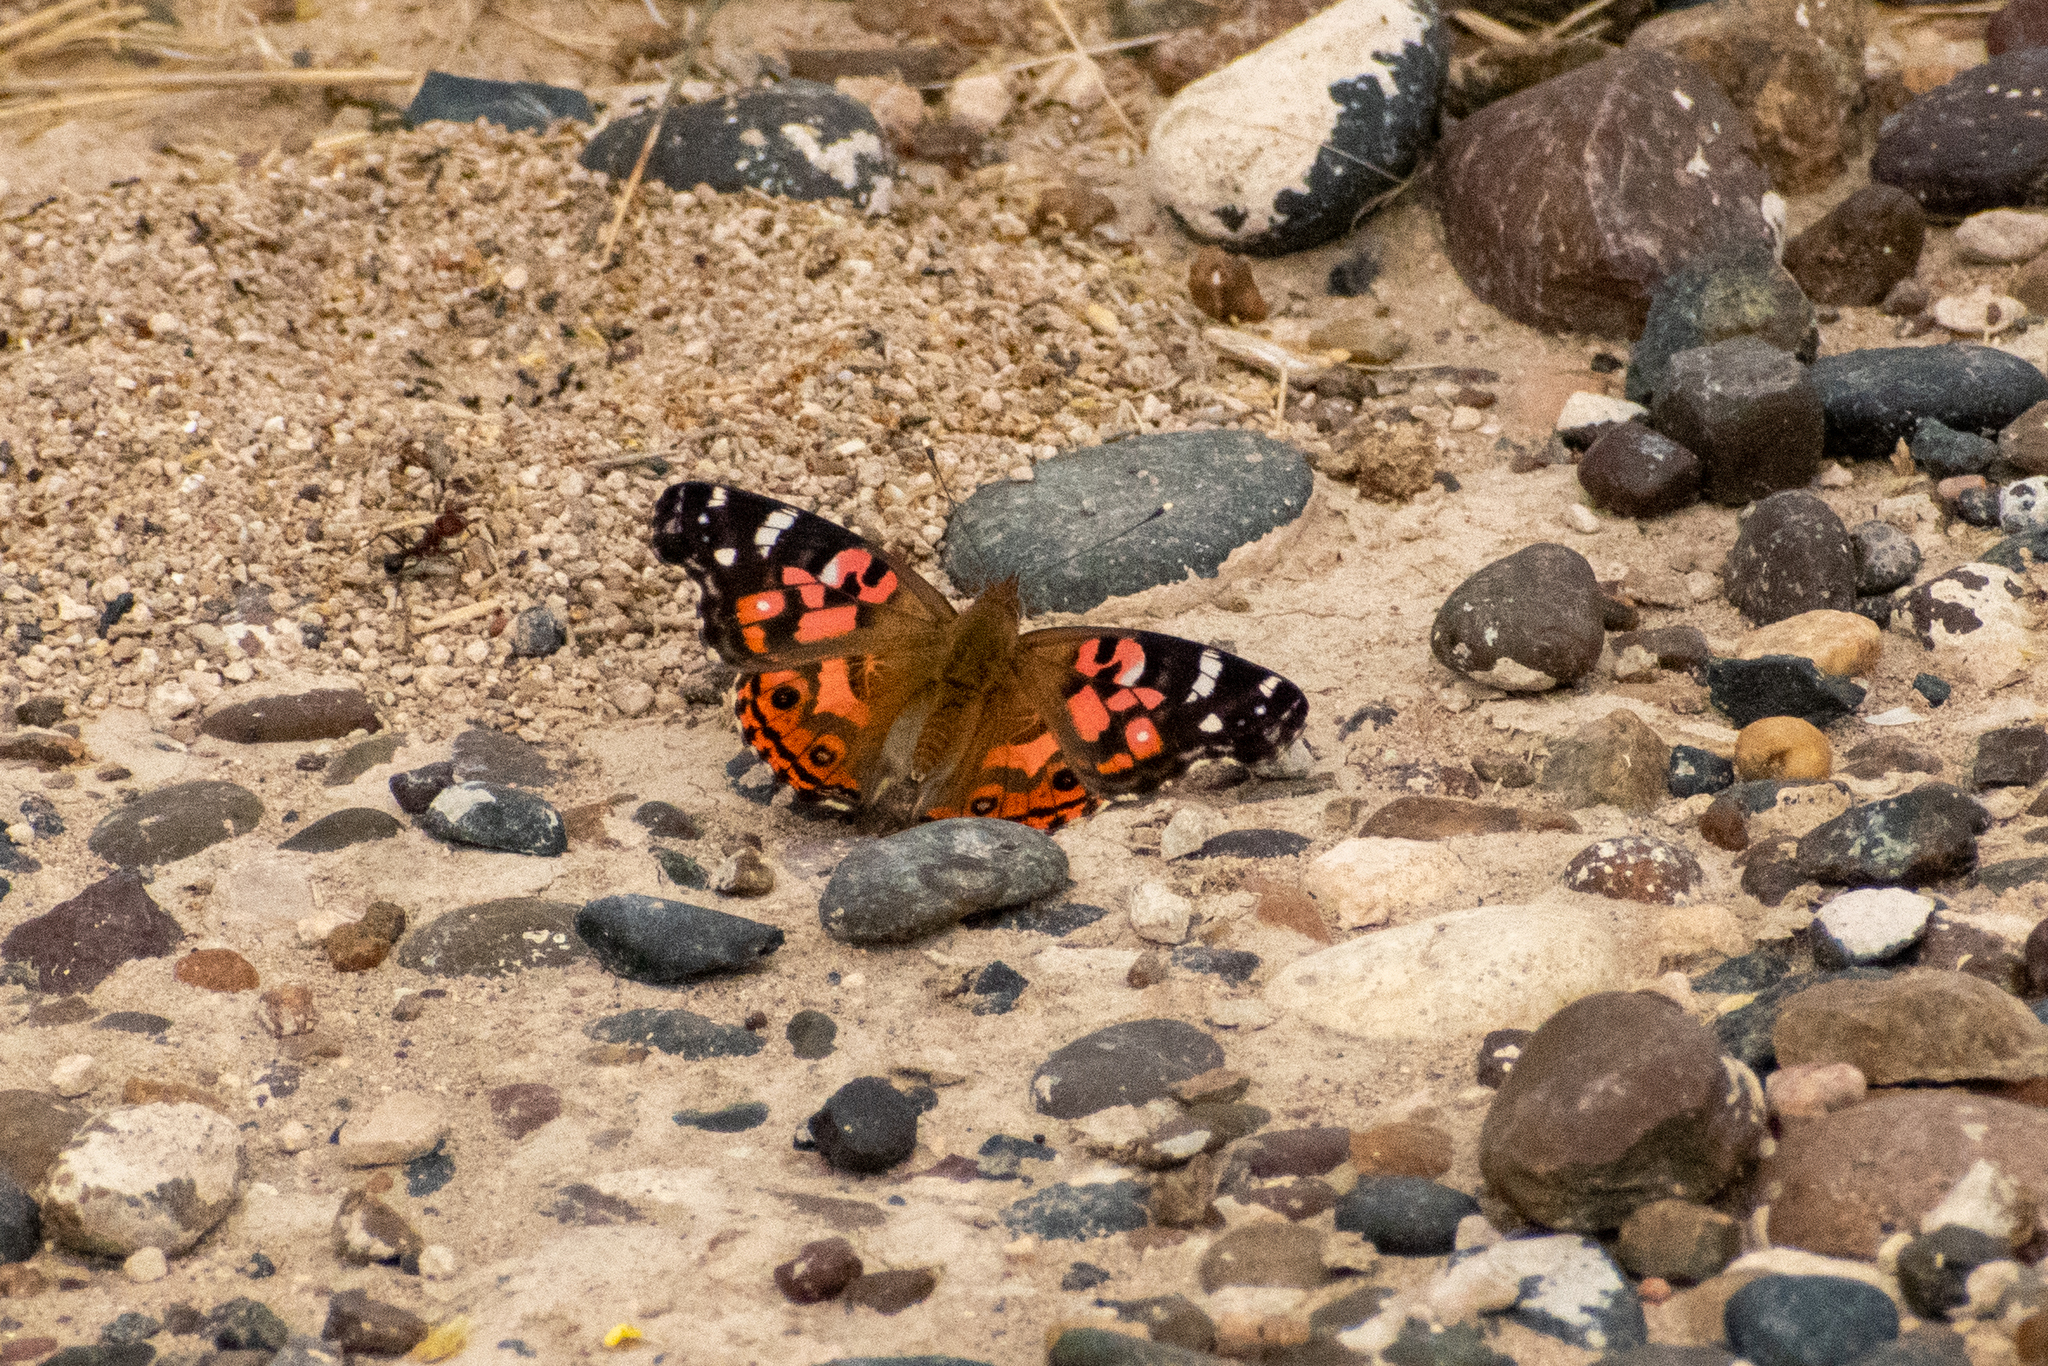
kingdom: Animalia
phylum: Arthropoda
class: Insecta
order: Lepidoptera
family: Nymphalidae
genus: Vanessa
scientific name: Vanessa braziliensis
